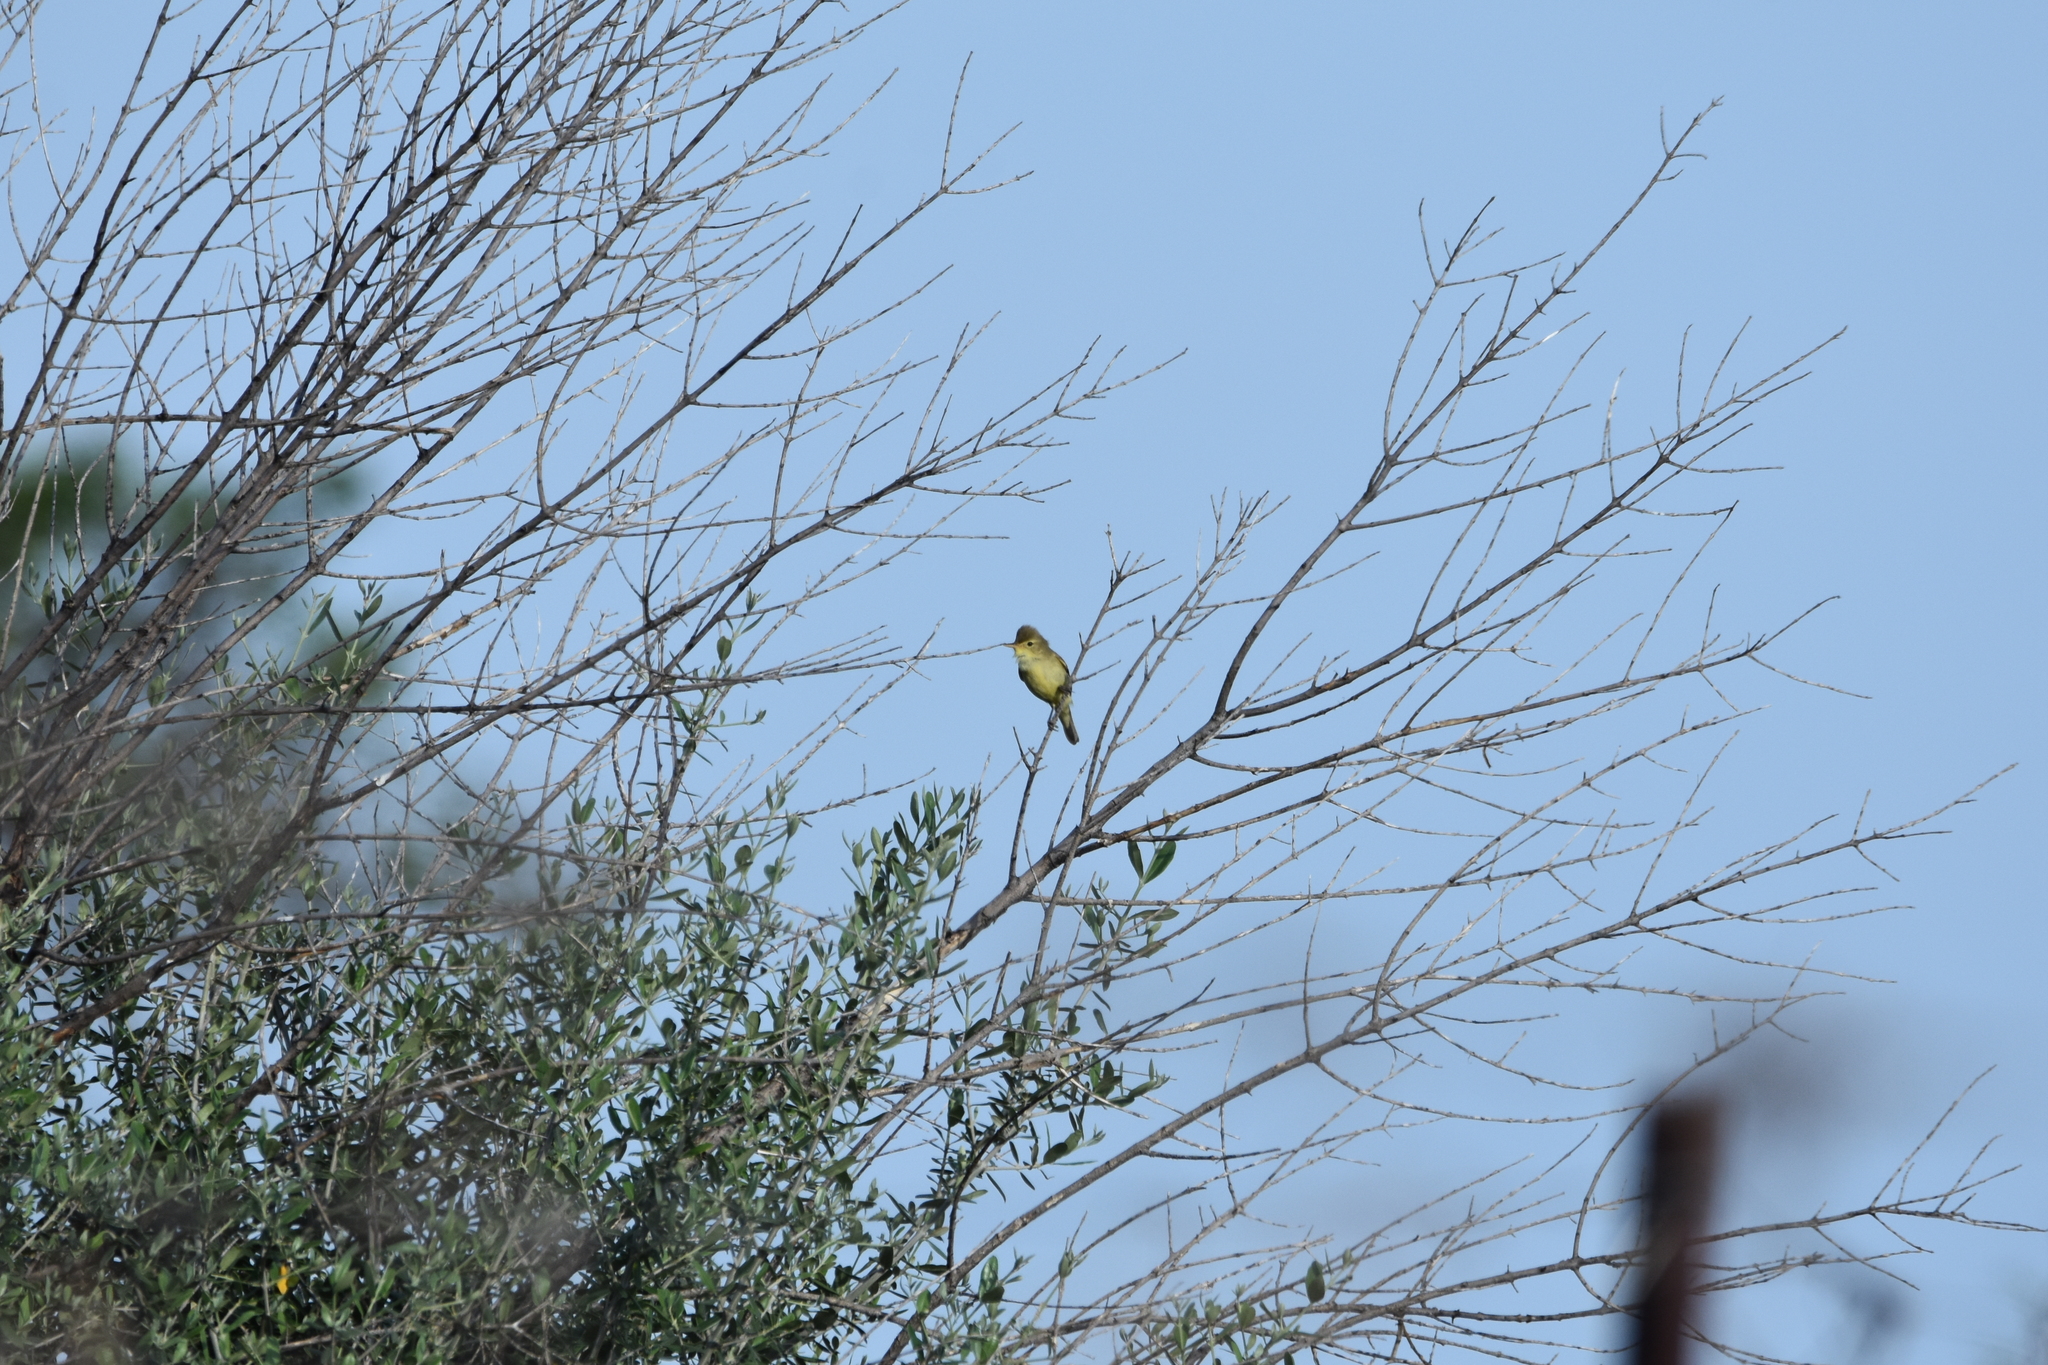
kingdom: Animalia
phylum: Chordata
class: Aves
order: Passeriformes
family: Acrocephalidae
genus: Hippolais
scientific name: Hippolais polyglotta
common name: Melodious warbler
